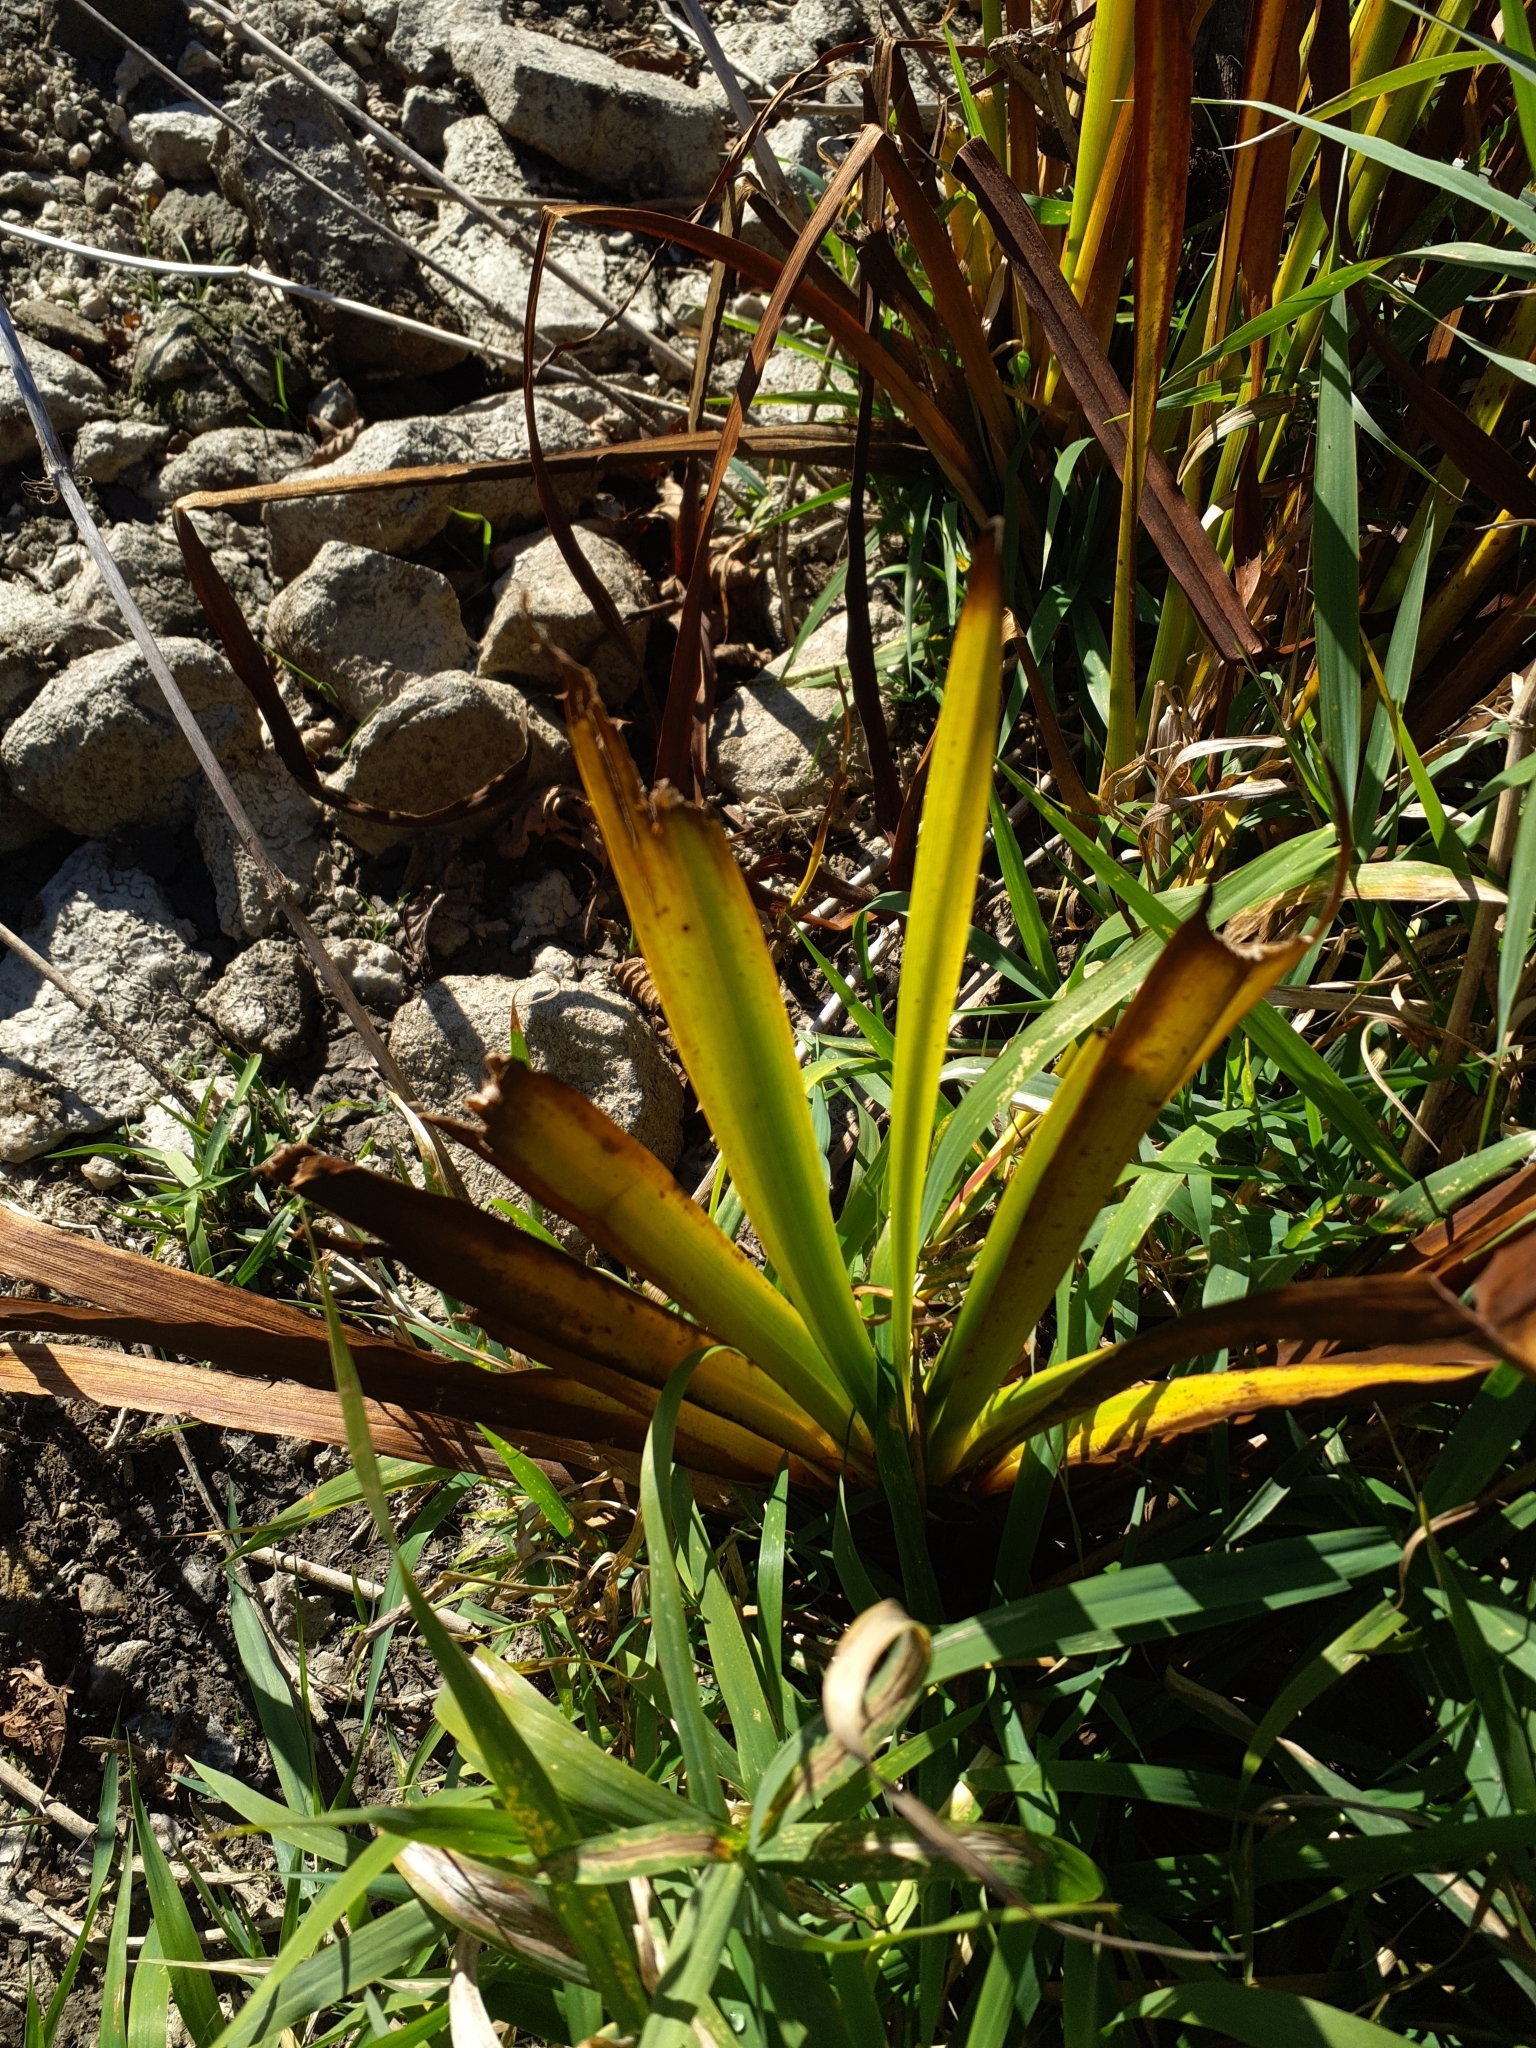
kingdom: Plantae
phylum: Tracheophyta
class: Liliopsida
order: Poales
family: Typhaceae
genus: Sparganium
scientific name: Sparganium erectum
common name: Branched bur-reed
